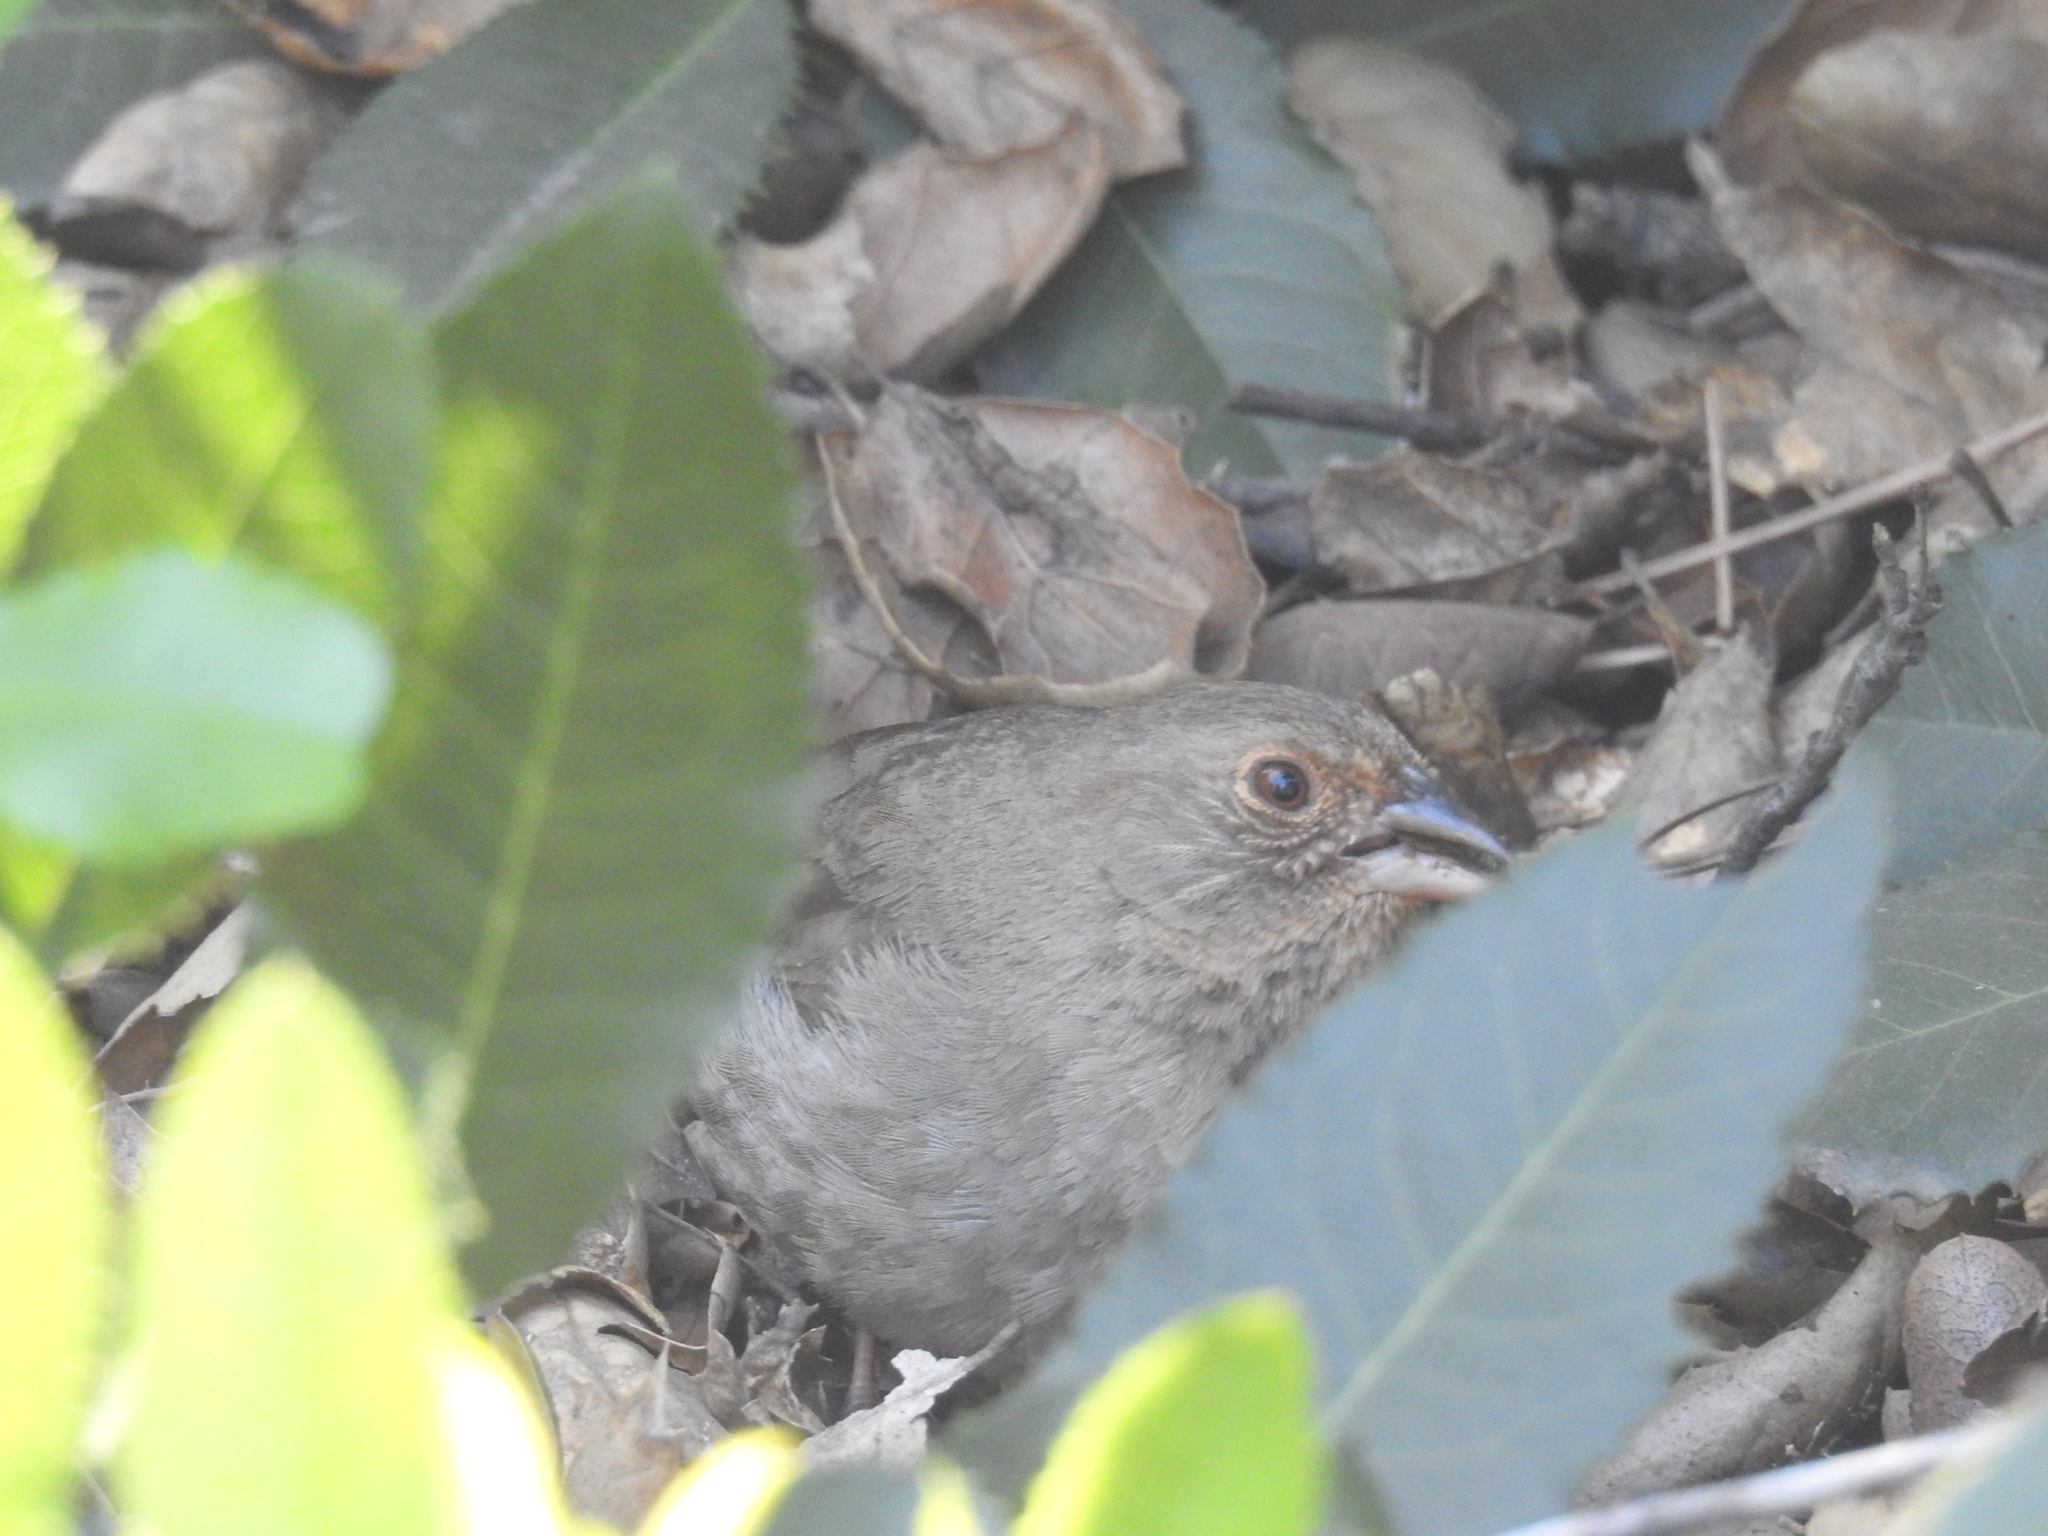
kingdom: Animalia
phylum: Chordata
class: Aves
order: Passeriformes
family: Passerellidae
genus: Melozone
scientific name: Melozone crissalis
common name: California towhee
